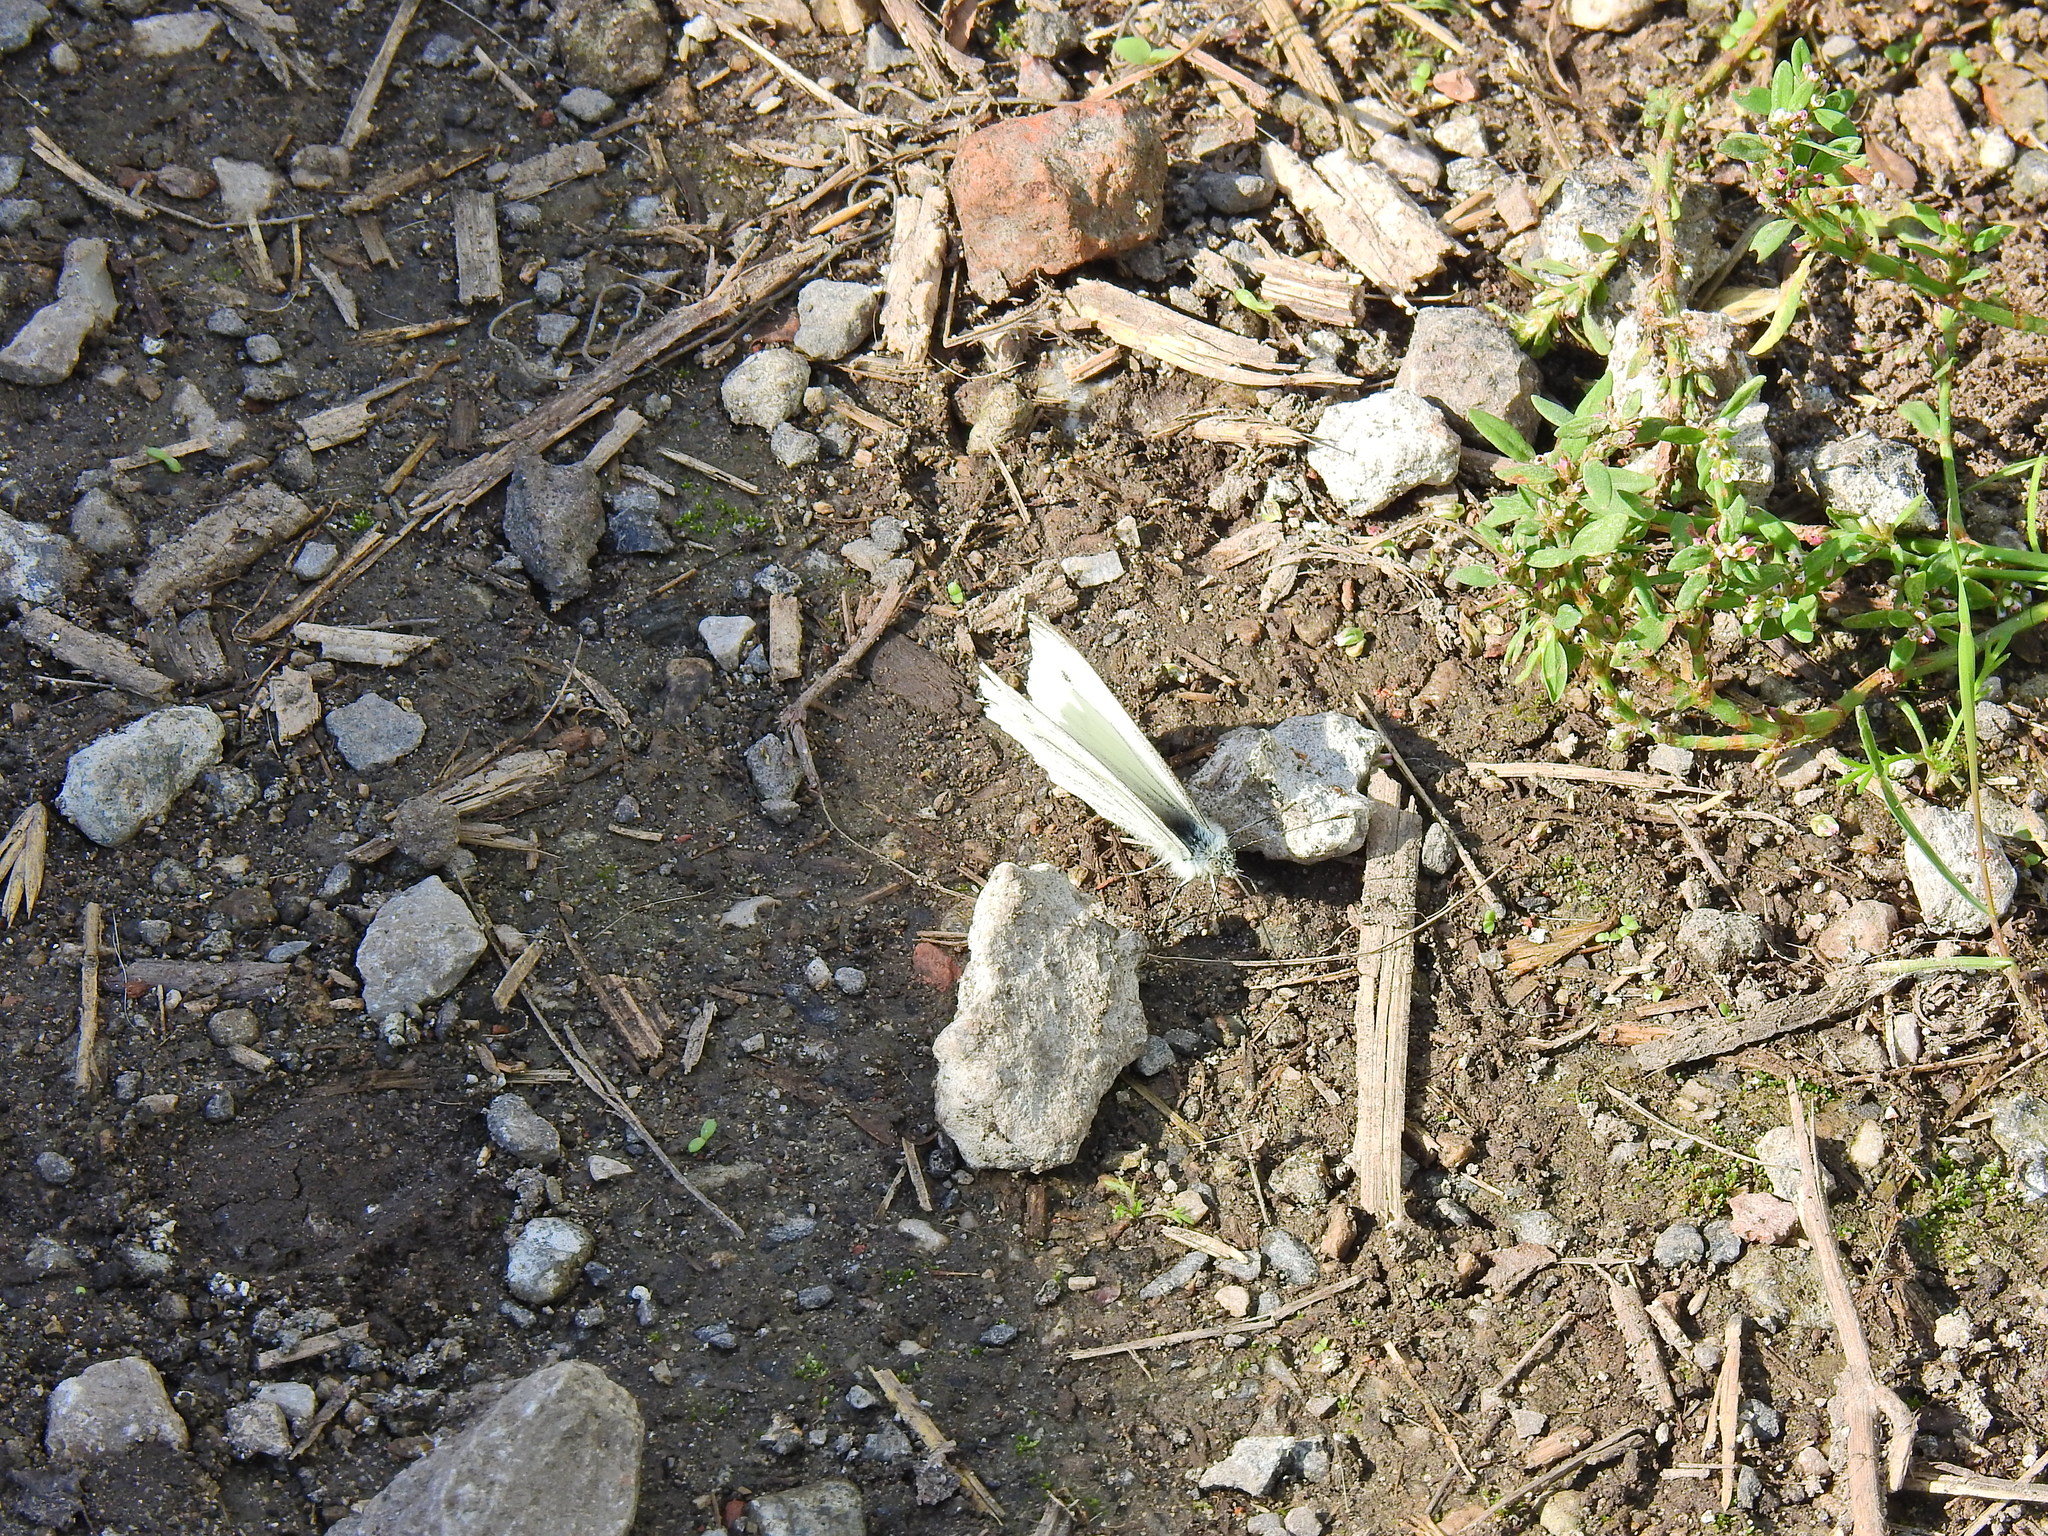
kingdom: Animalia
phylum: Arthropoda
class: Insecta
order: Lepidoptera
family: Pieridae
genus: Pieris
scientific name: Pieris napi
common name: Green-veined white
